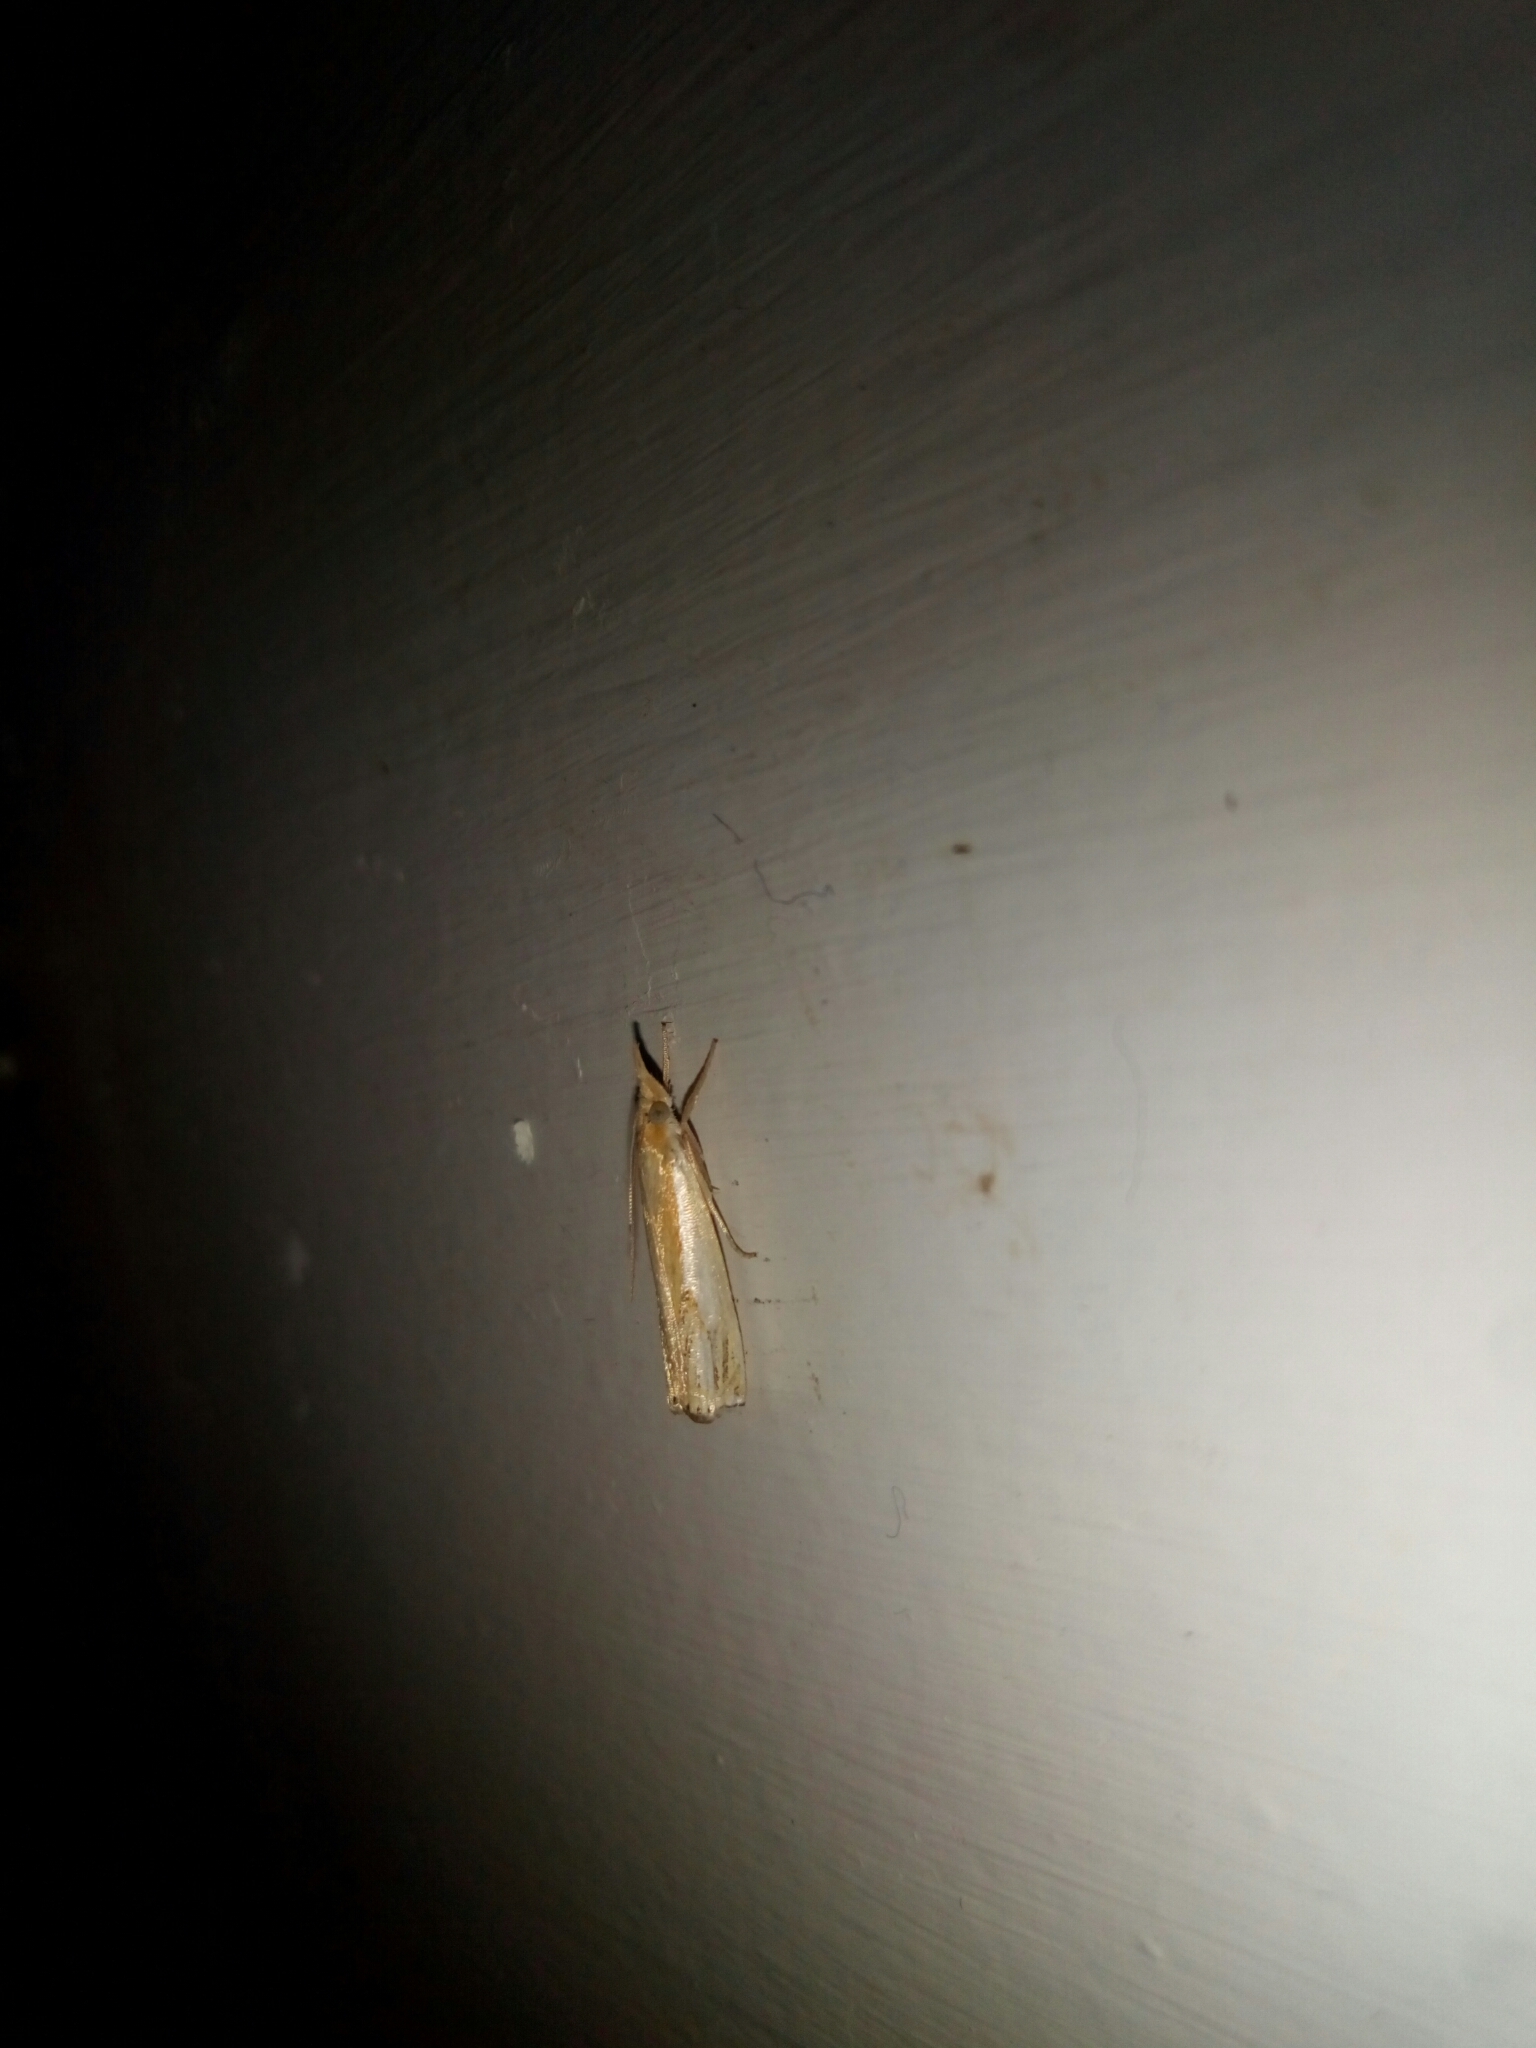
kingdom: Animalia
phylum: Arthropoda
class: Insecta
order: Lepidoptera
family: Crambidae
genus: Crambus
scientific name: Crambus agitatellus
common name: Double-banded grass-veneer
